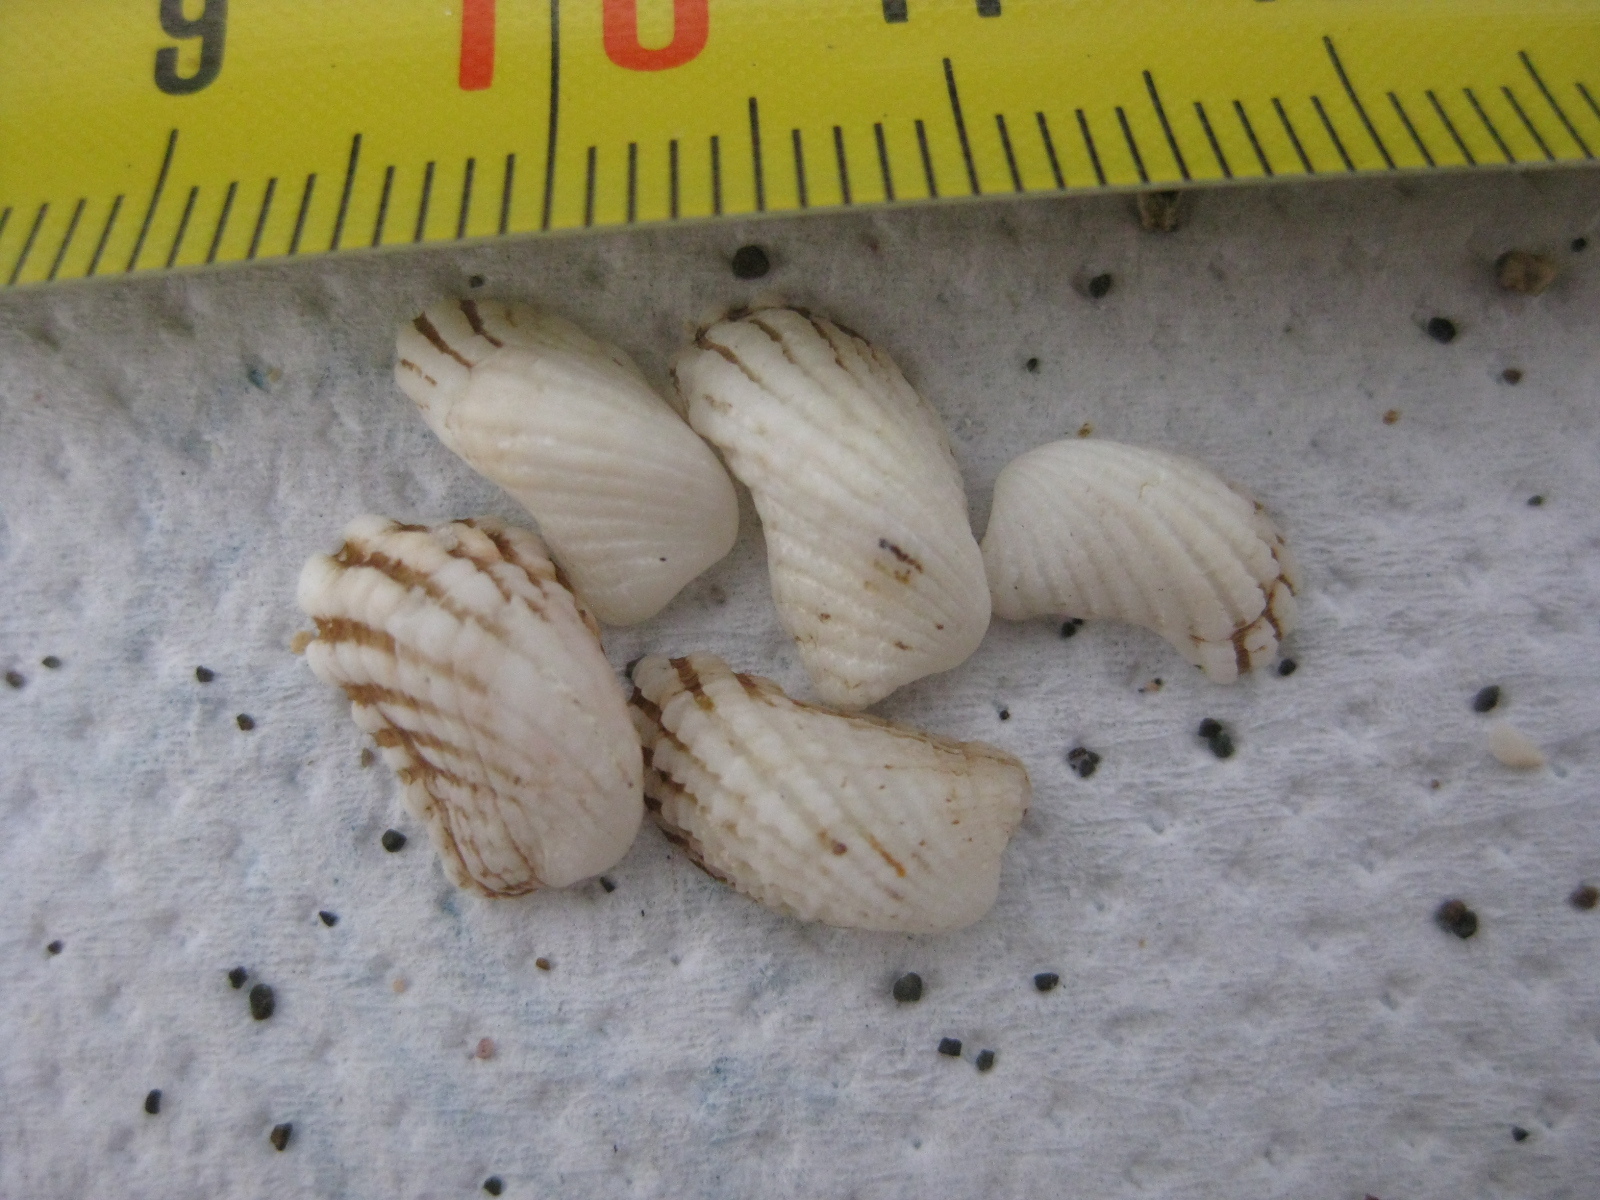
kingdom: Animalia
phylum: Mollusca
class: Bivalvia
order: Carditida
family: Carditidae
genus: Powellina
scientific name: Powellina brookesi
